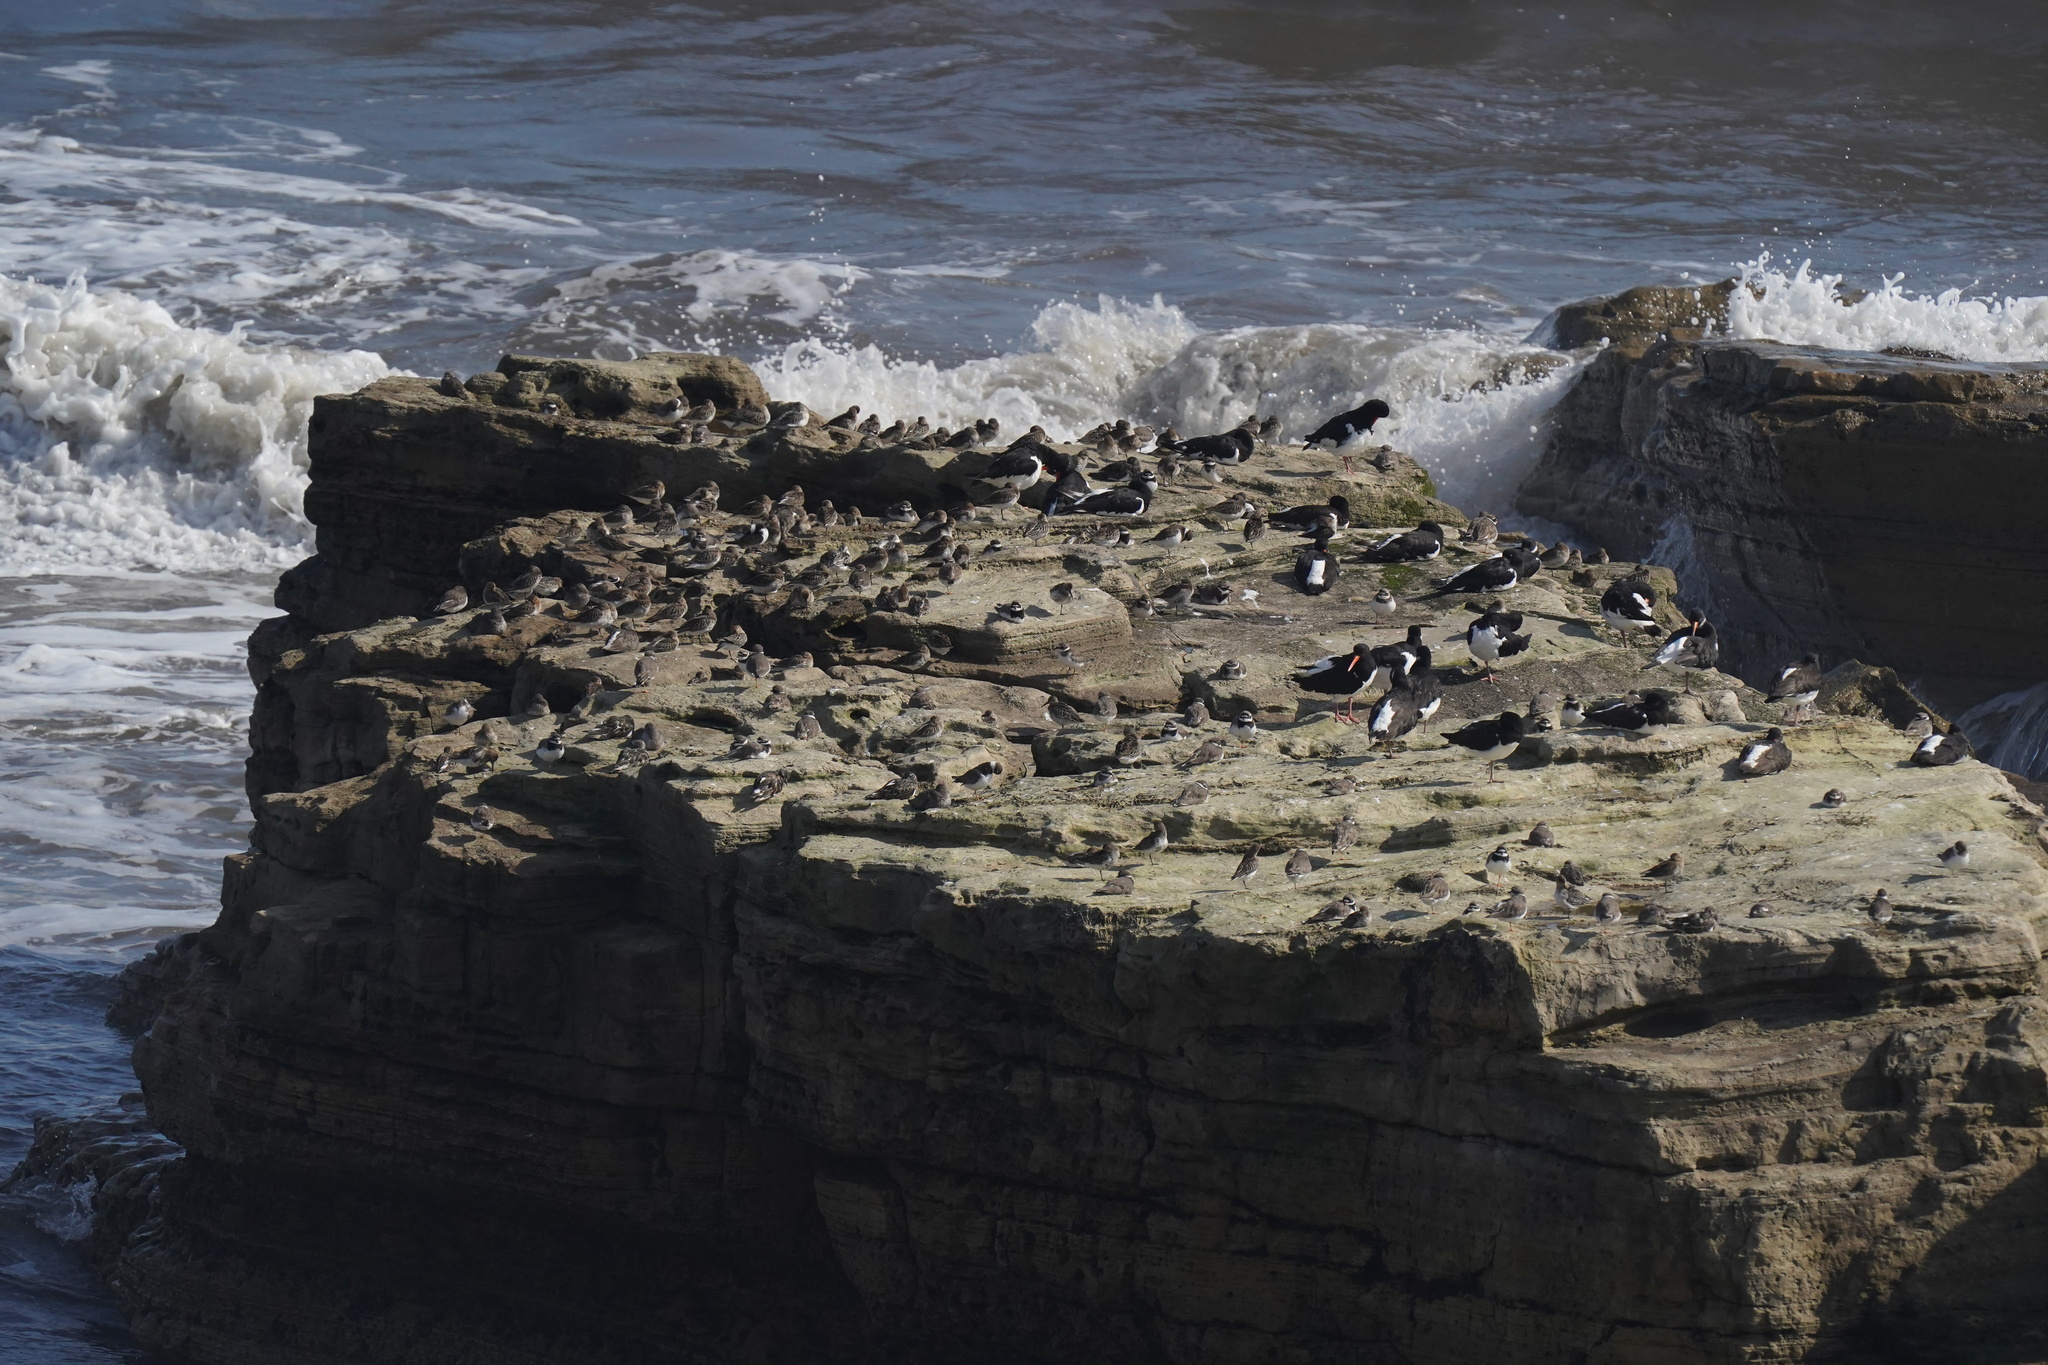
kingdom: Animalia
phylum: Chordata
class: Aves
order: Charadriiformes
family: Haematopodidae
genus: Haematopus
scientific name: Haematopus ostralegus
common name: Eurasian oystercatcher
